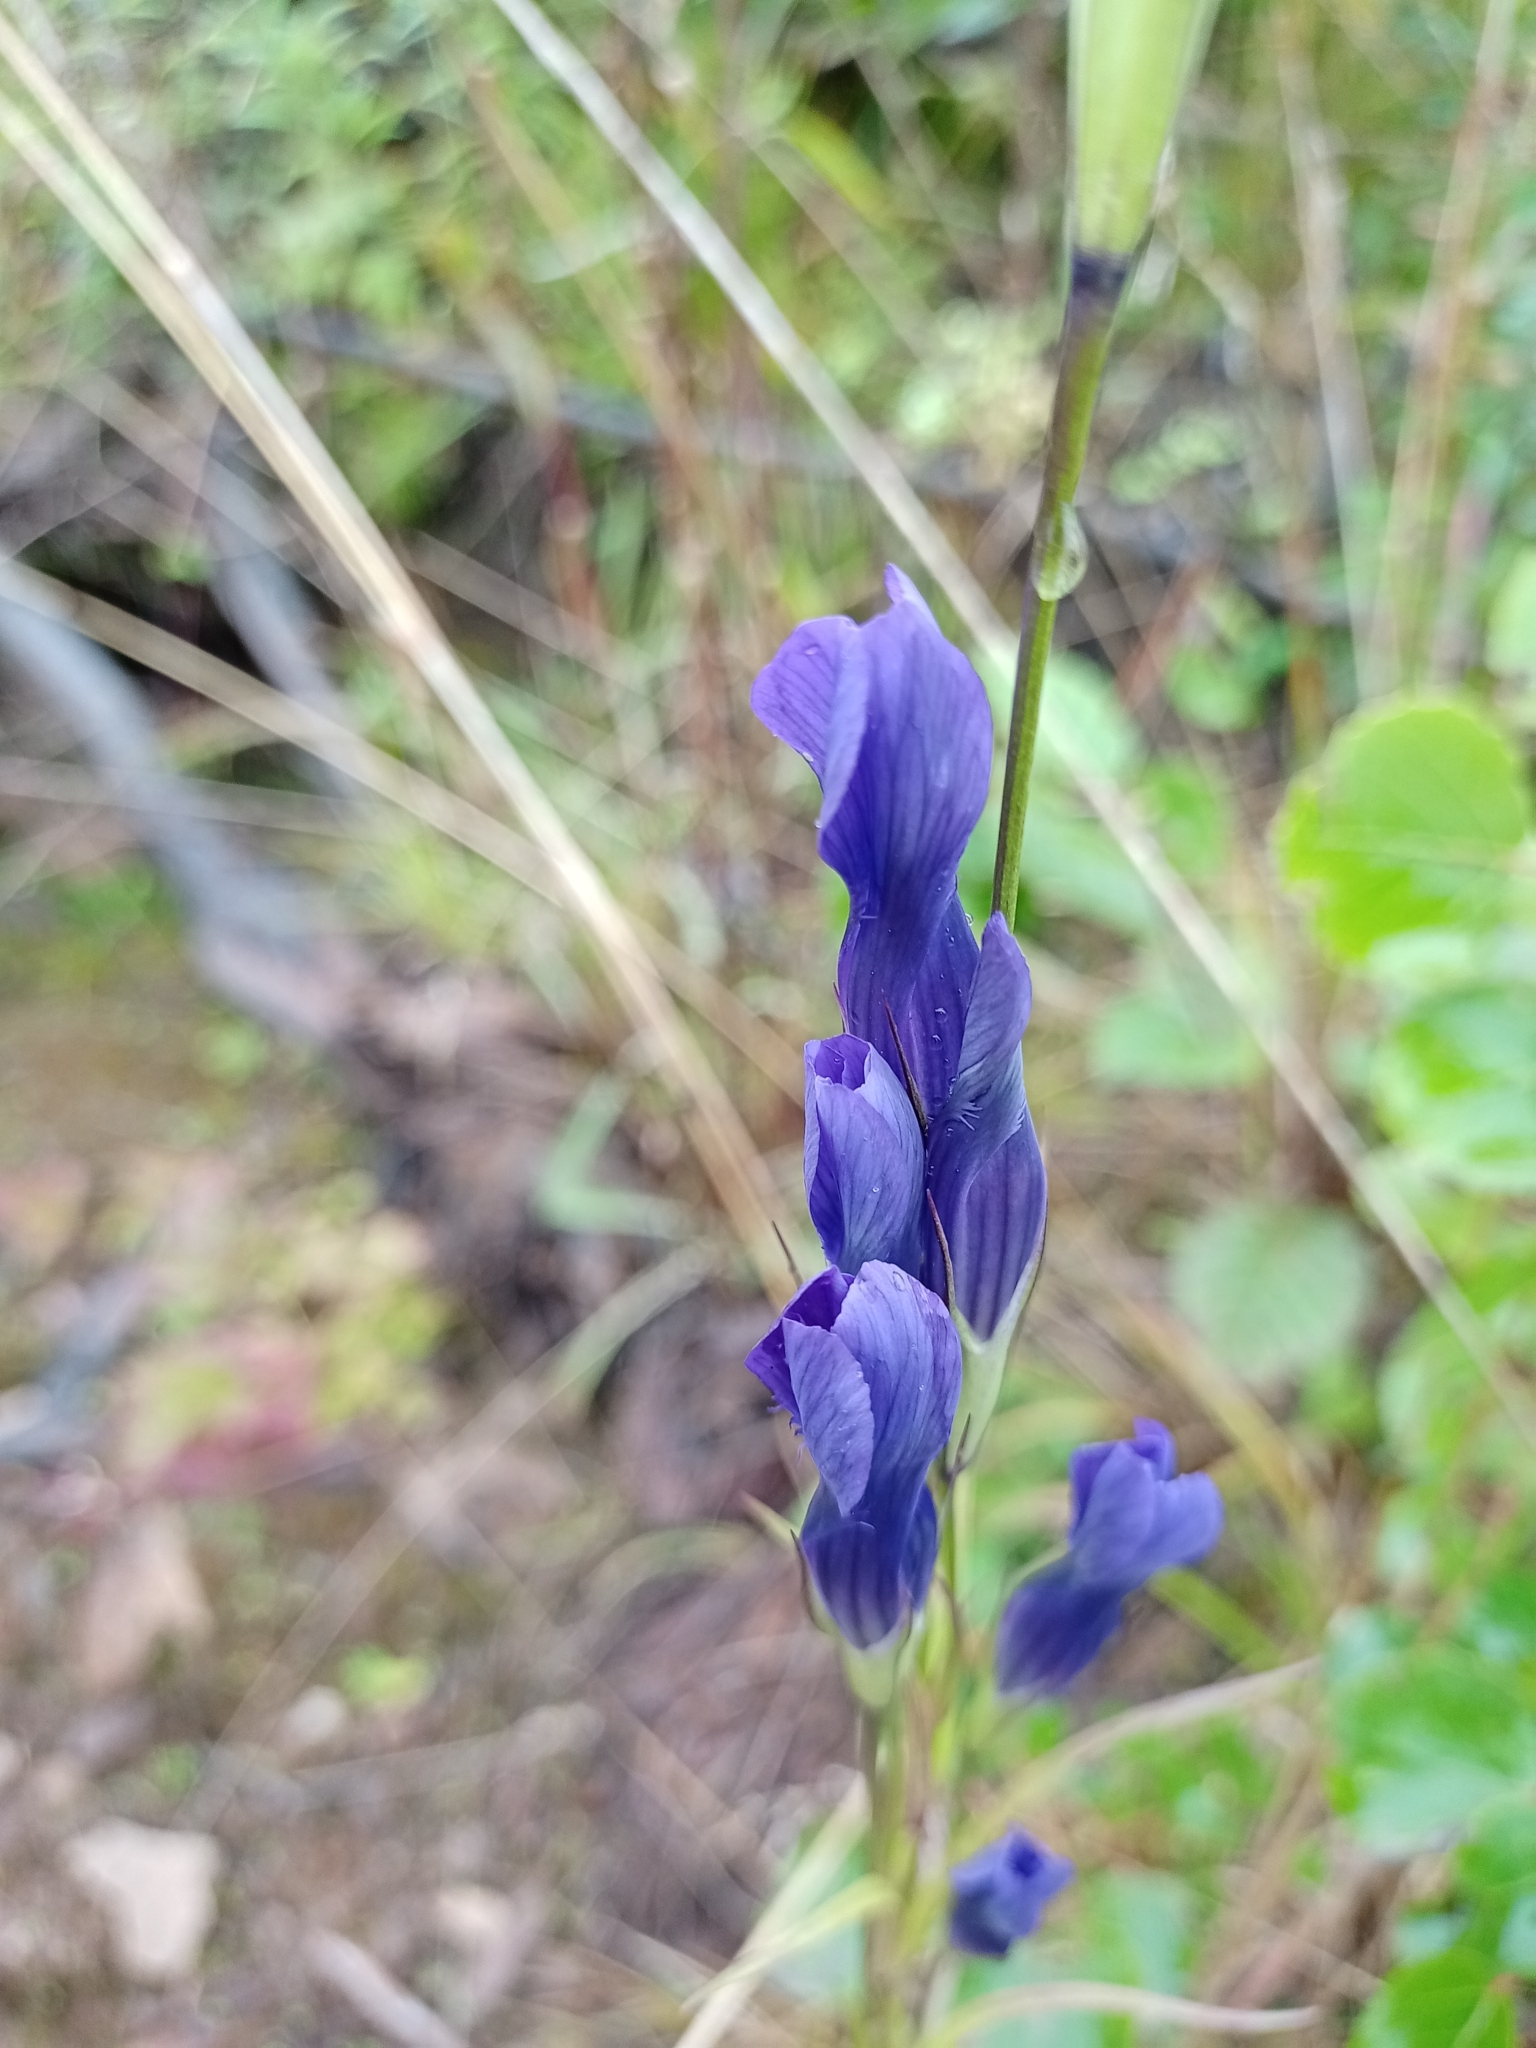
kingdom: Plantae
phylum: Tracheophyta
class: Magnoliopsida
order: Gentianales
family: Gentianaceae
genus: Gentianopsis
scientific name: Gentianopsis barbata
